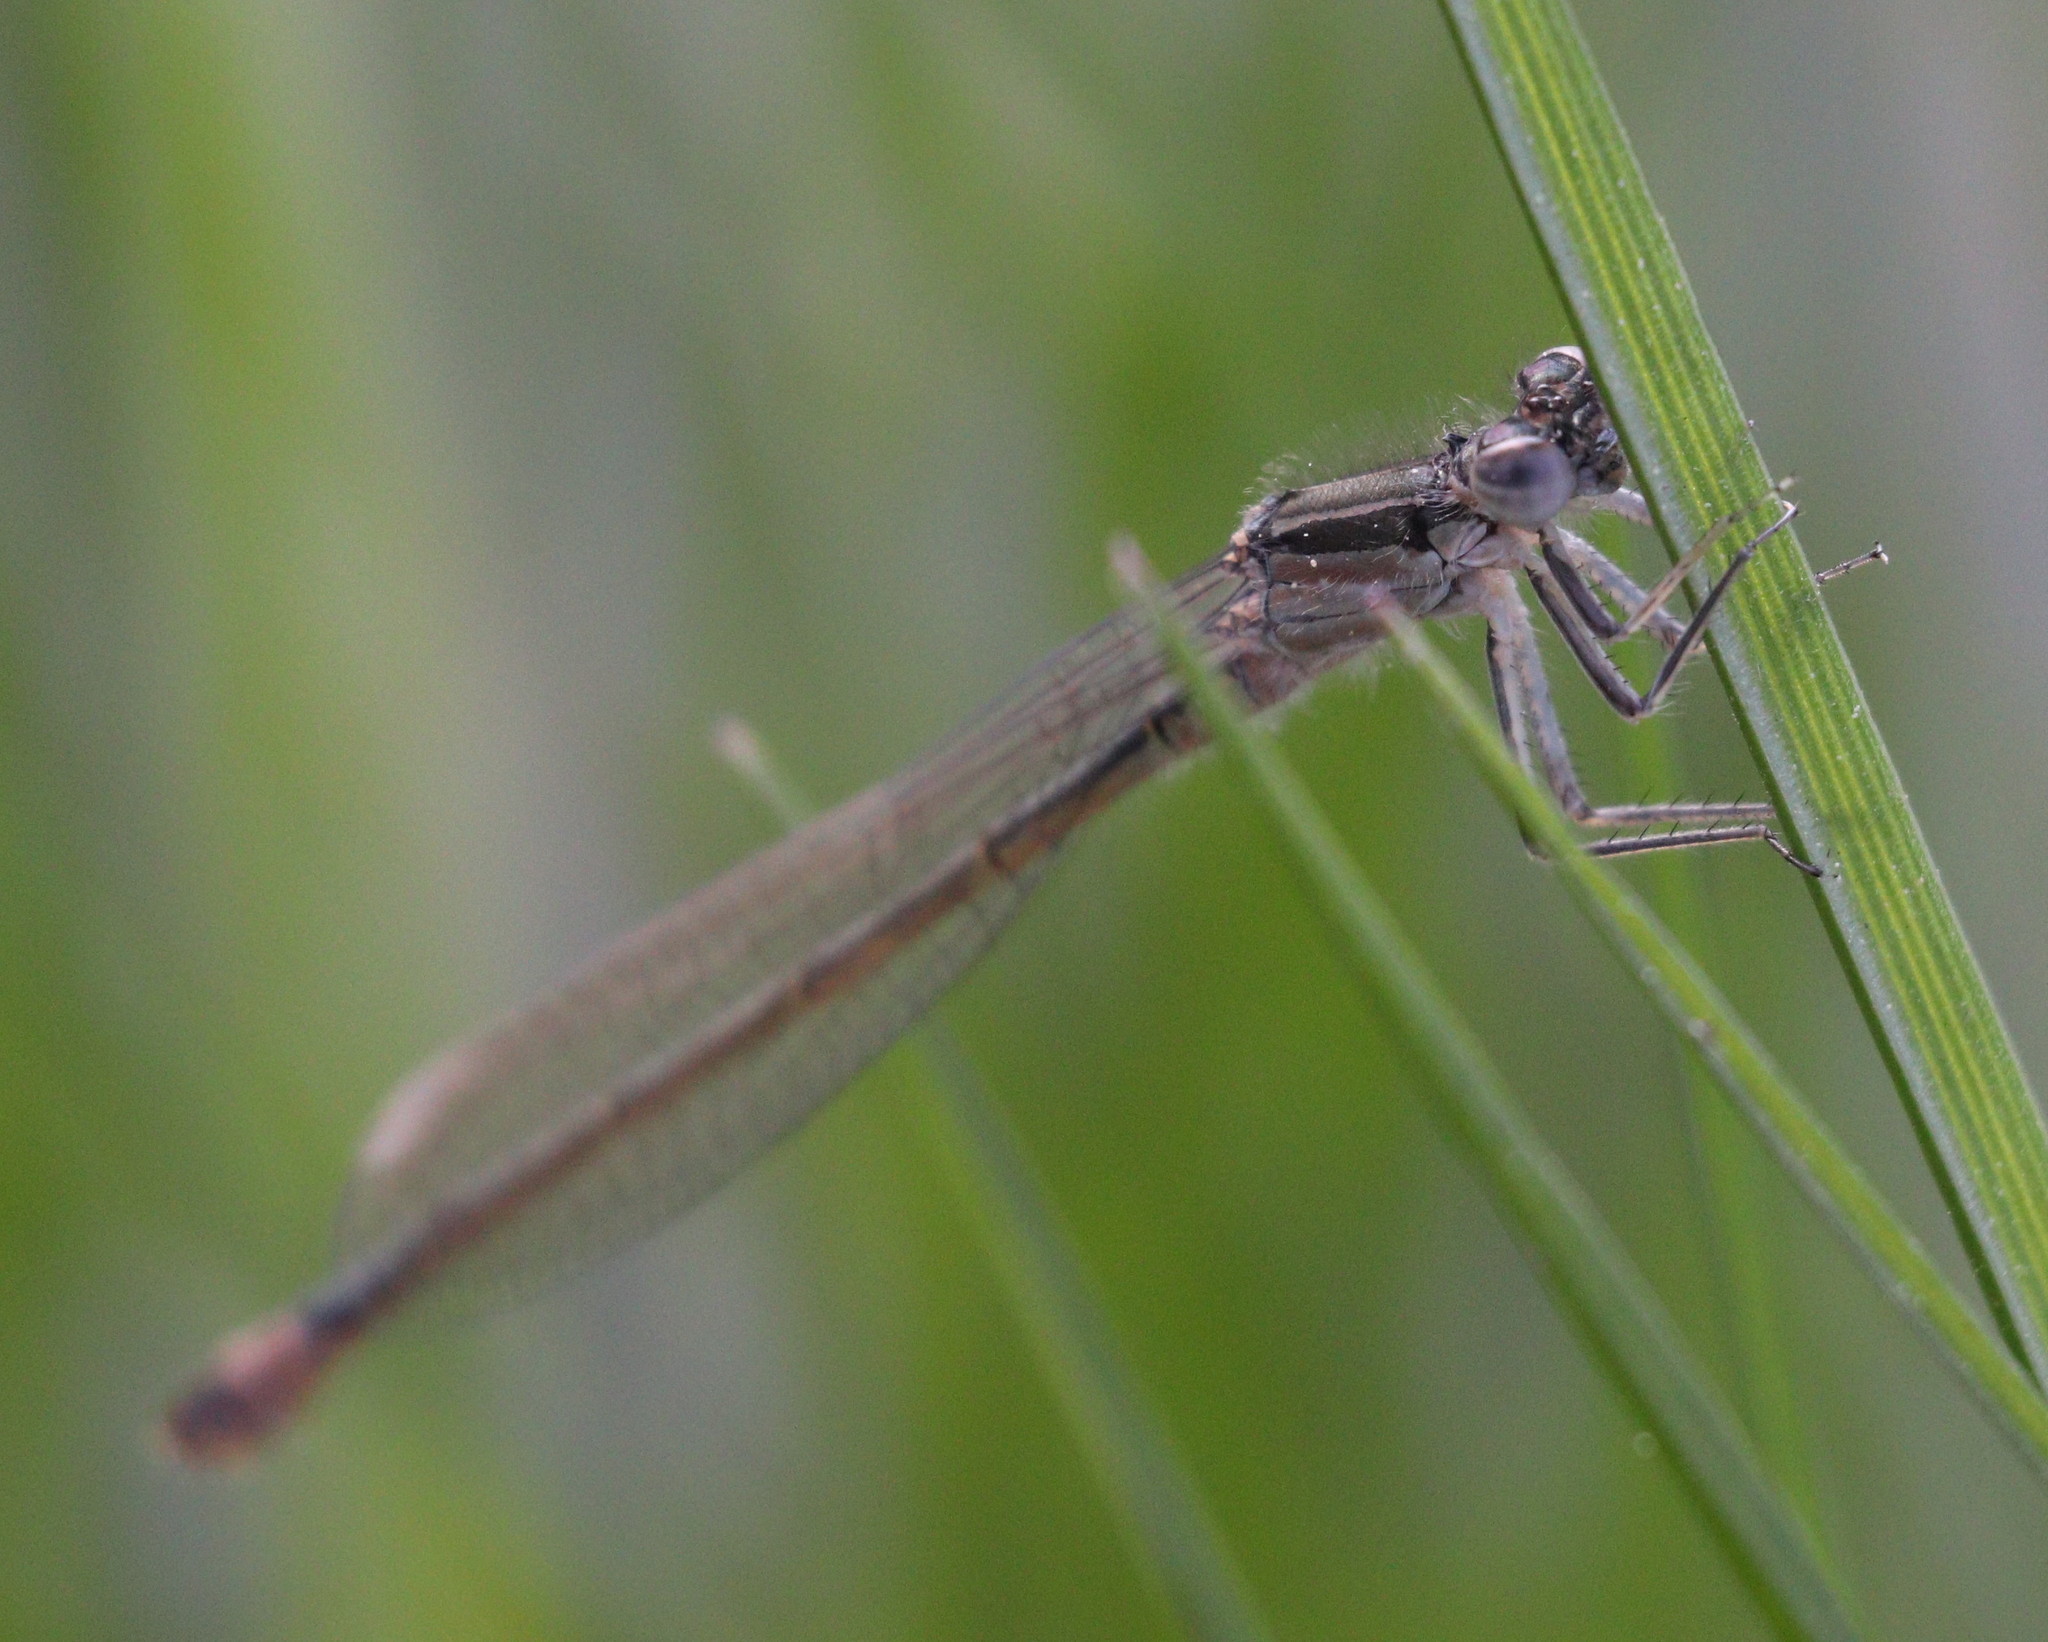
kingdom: Animalia
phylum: Arthropoda
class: Insecta
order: Odonata
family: Coenagrionidae
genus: Ischnura
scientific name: Ischnura elegans
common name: Blue-tailed damselfly
